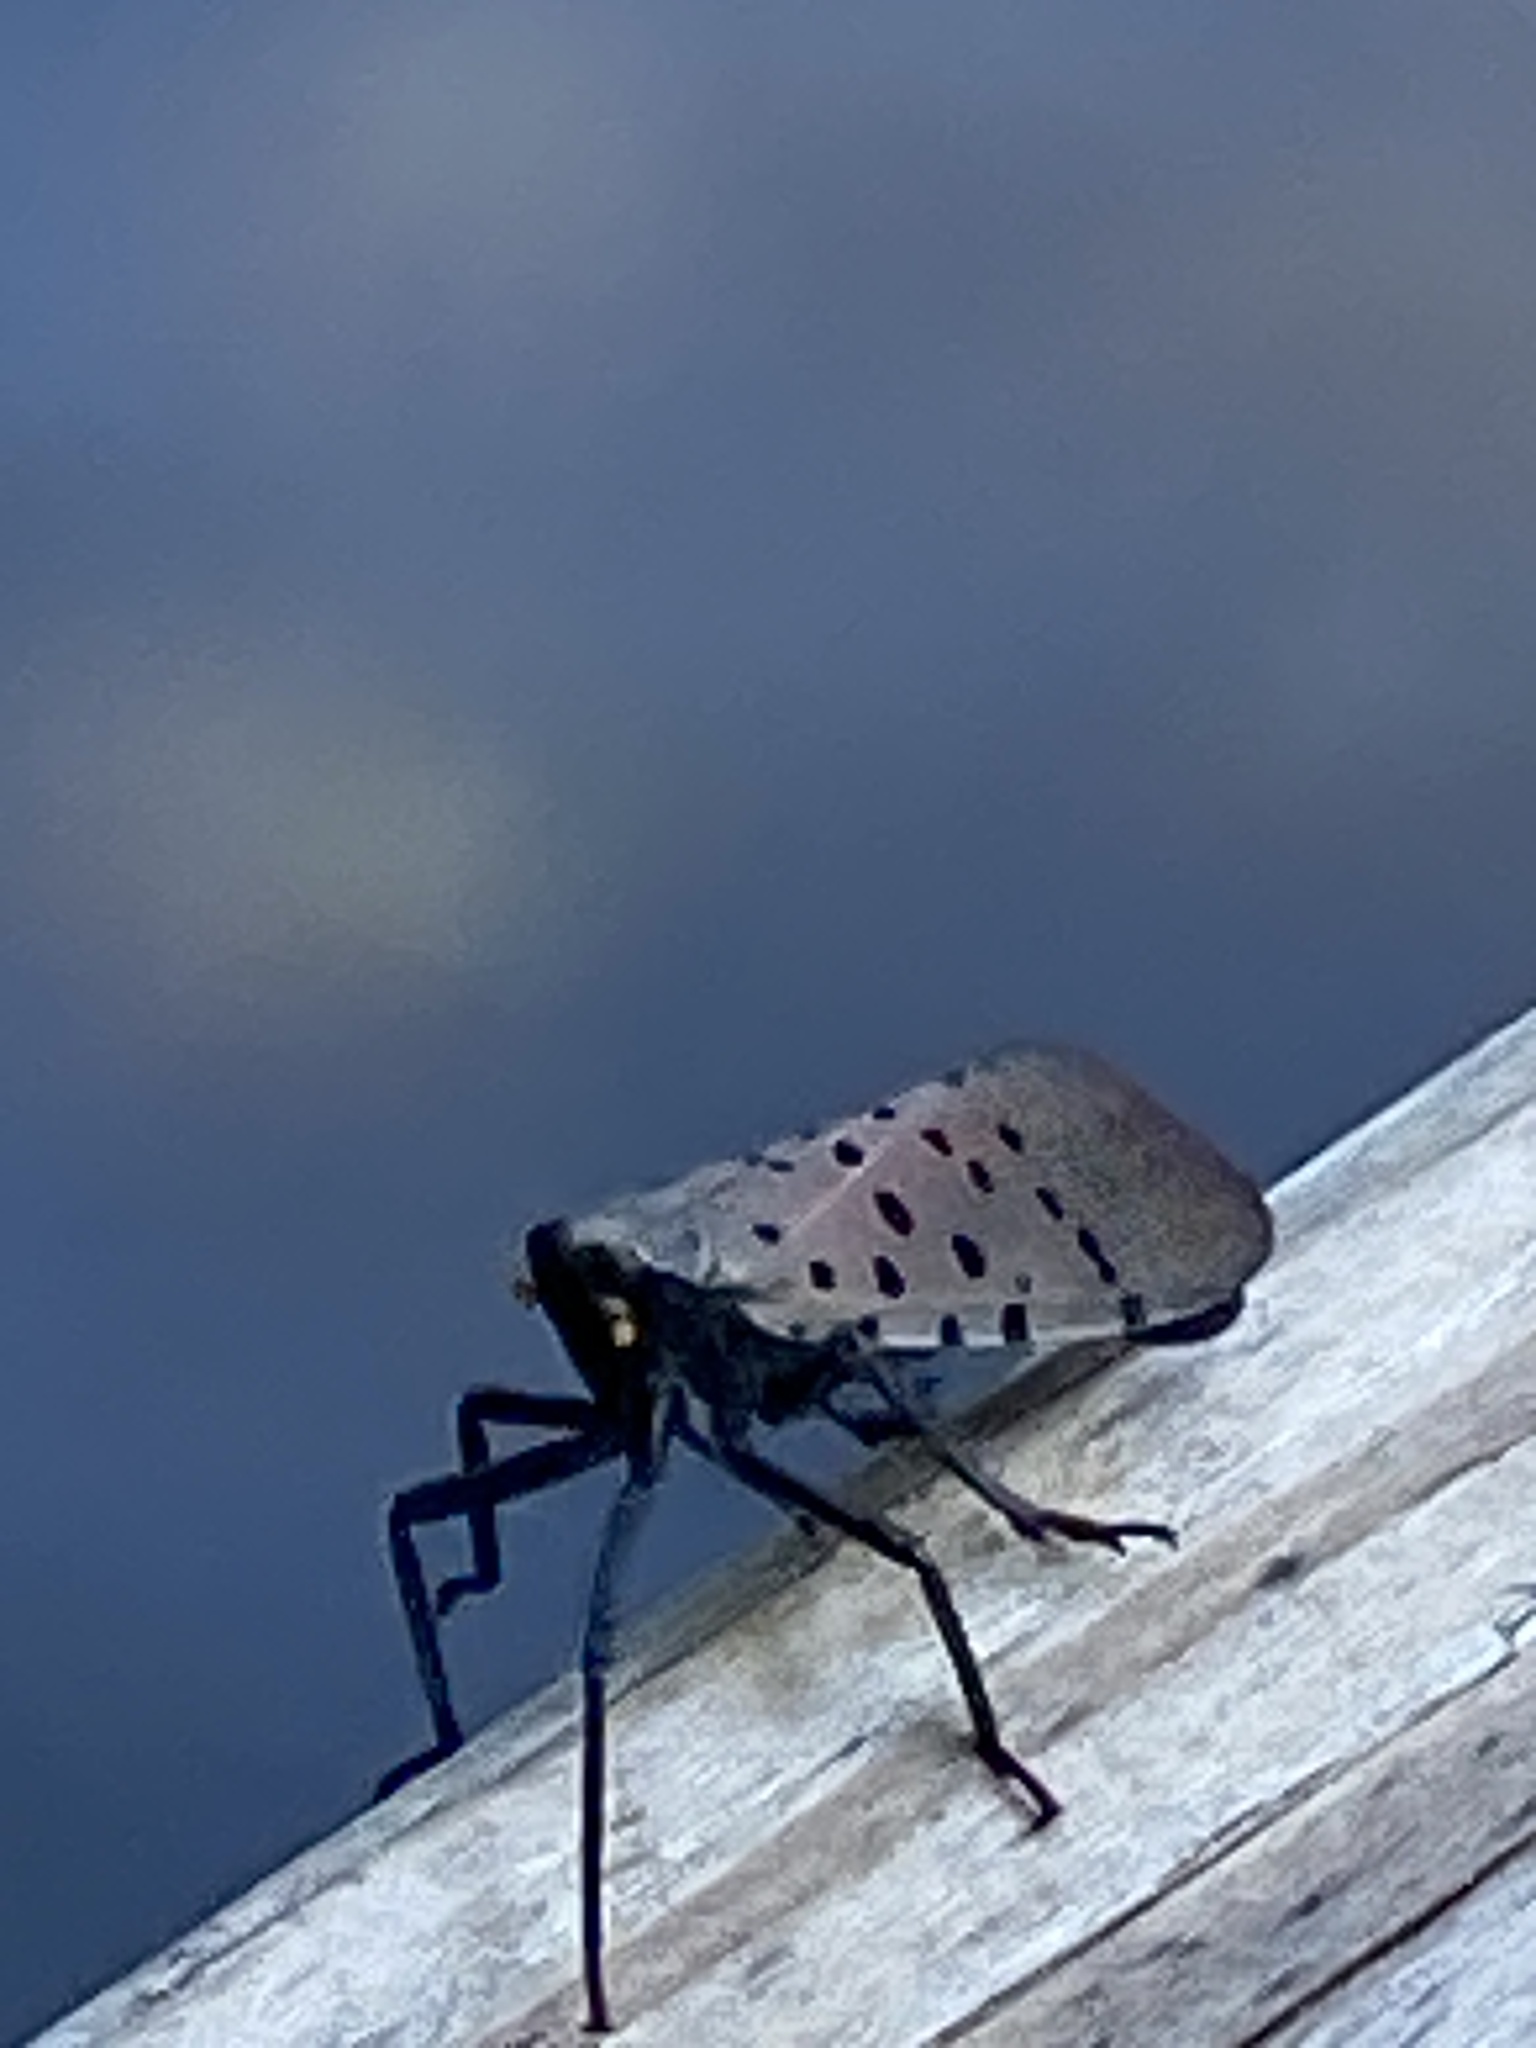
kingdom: Animalia
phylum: Arthropoda
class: Insecta
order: Hemiptera
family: Fulgoridae
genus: Lycorma
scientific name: Lycorma delicatula
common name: Spotted lanternfly
